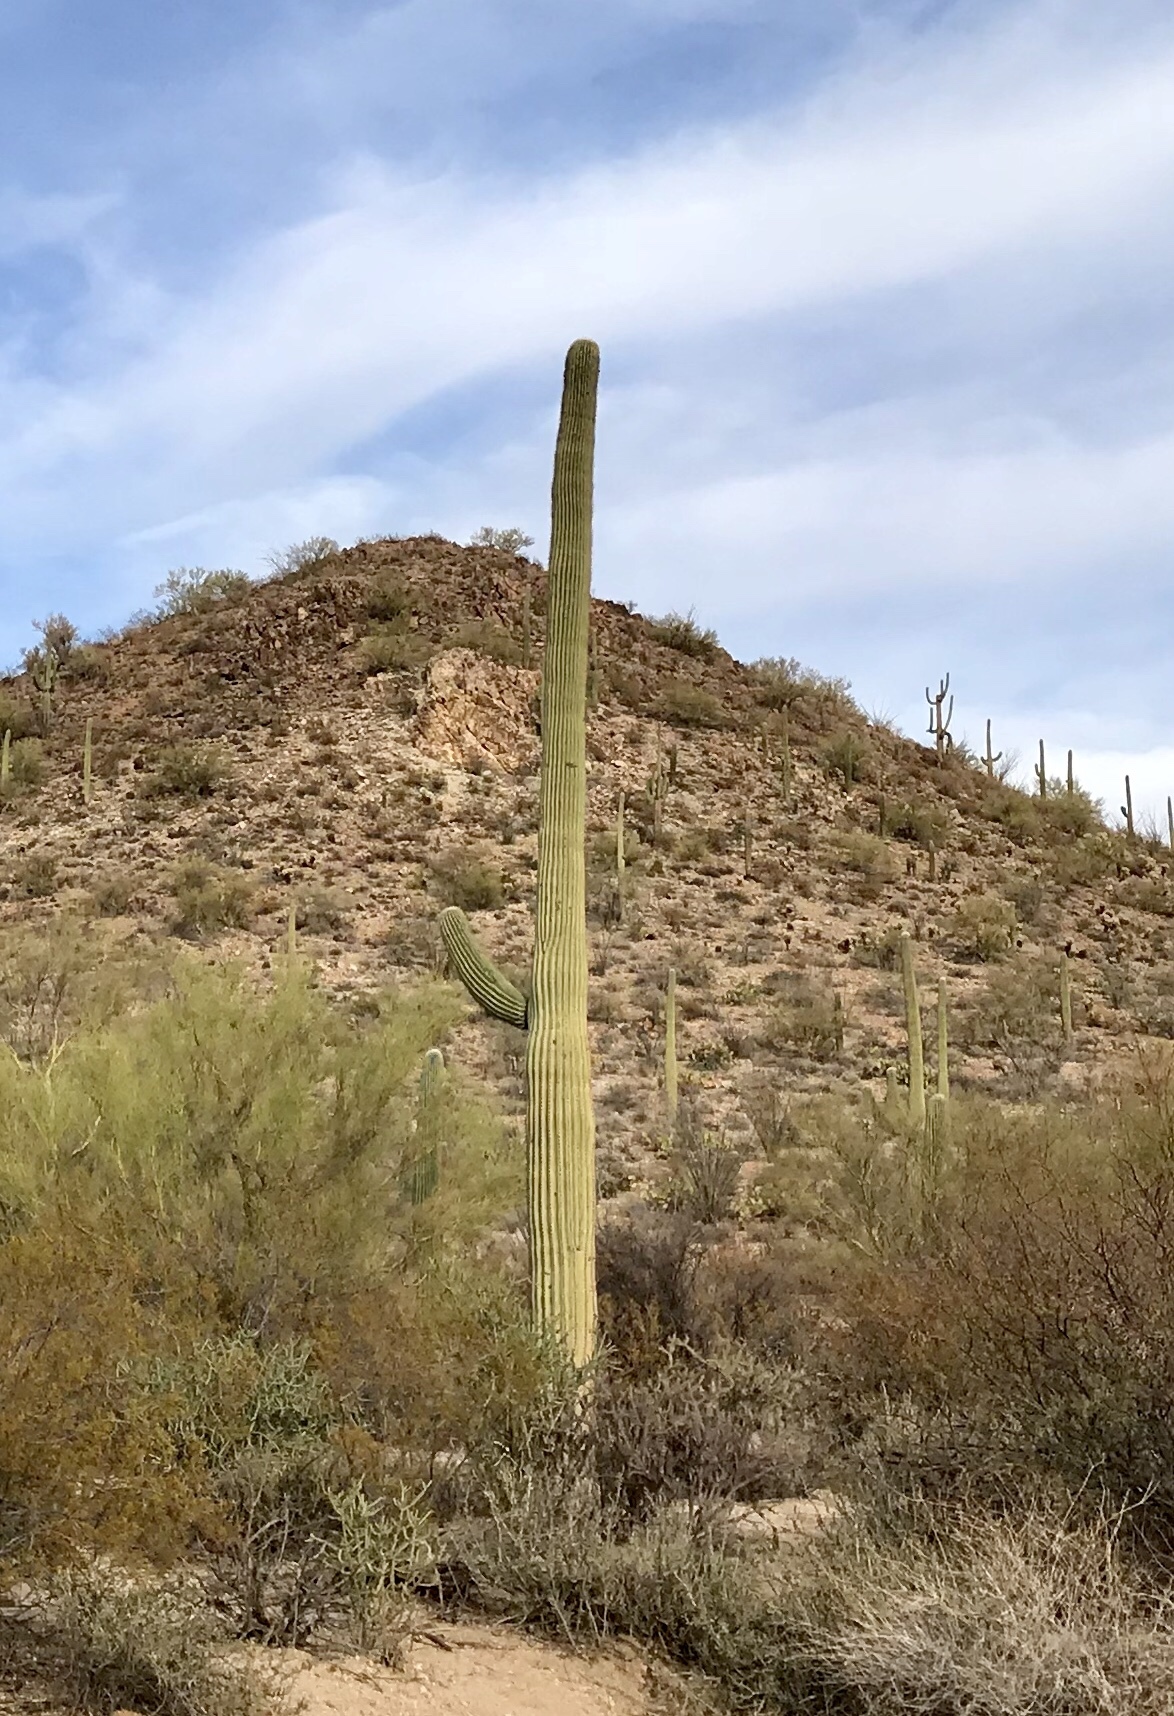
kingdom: Plantae
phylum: Tracheophyta
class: Magnoliopsida
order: Caryophyllales
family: Cactaceae
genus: Carnegiea
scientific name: Carnegiea gigantea
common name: Saguaro
